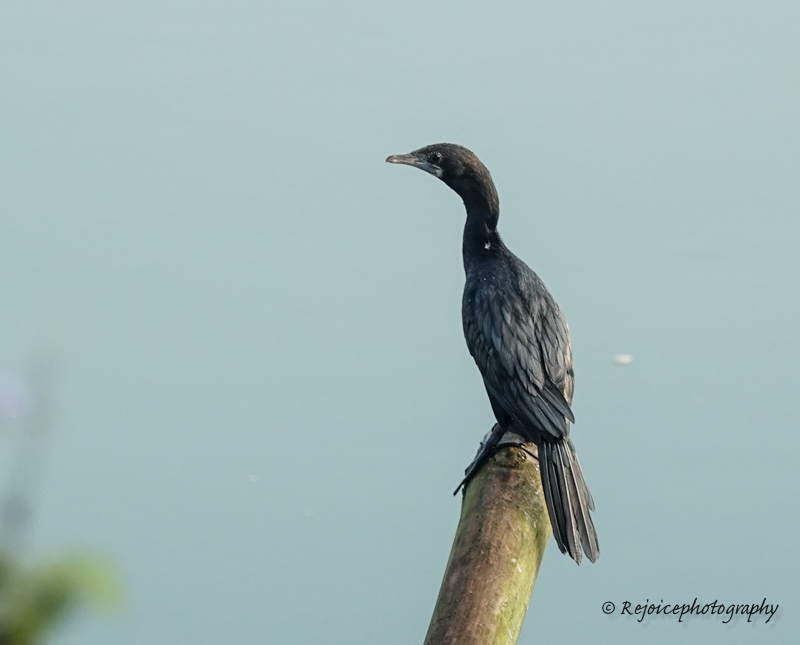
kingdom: Animalia
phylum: Chordata
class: Aves
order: Suliformes
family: Phalacrocoracidae
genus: Microcarbo
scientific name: Microcarbo niger
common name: Little cormorant
